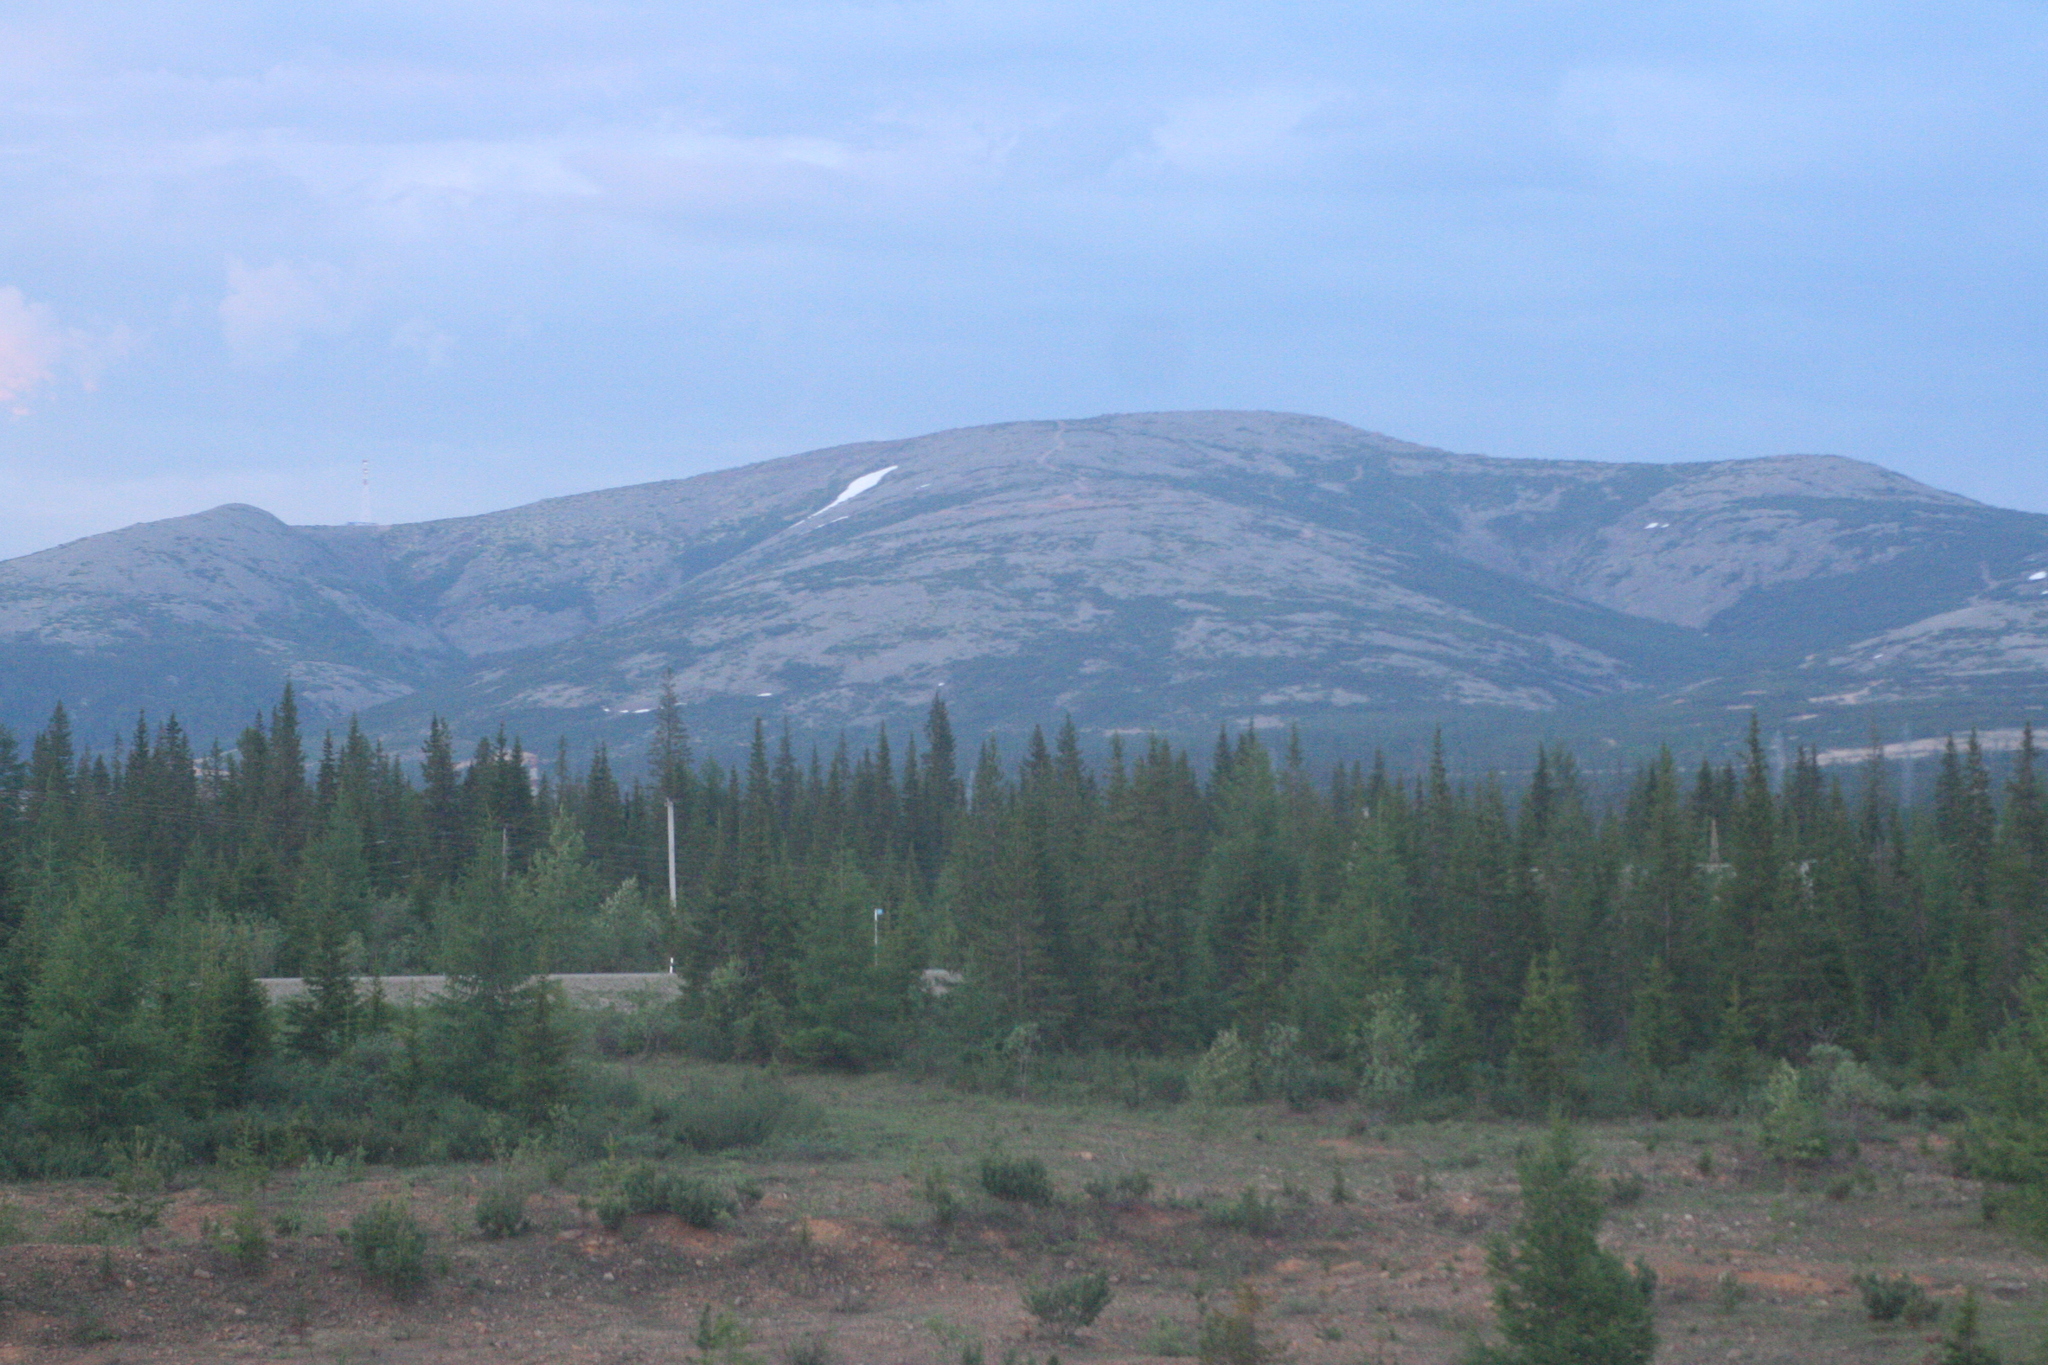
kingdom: Plantae
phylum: Tracheophyta
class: Pinopsida
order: Pinales
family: Pinaceae
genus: Picea
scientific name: Picea obovata
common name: Siberian spruce
